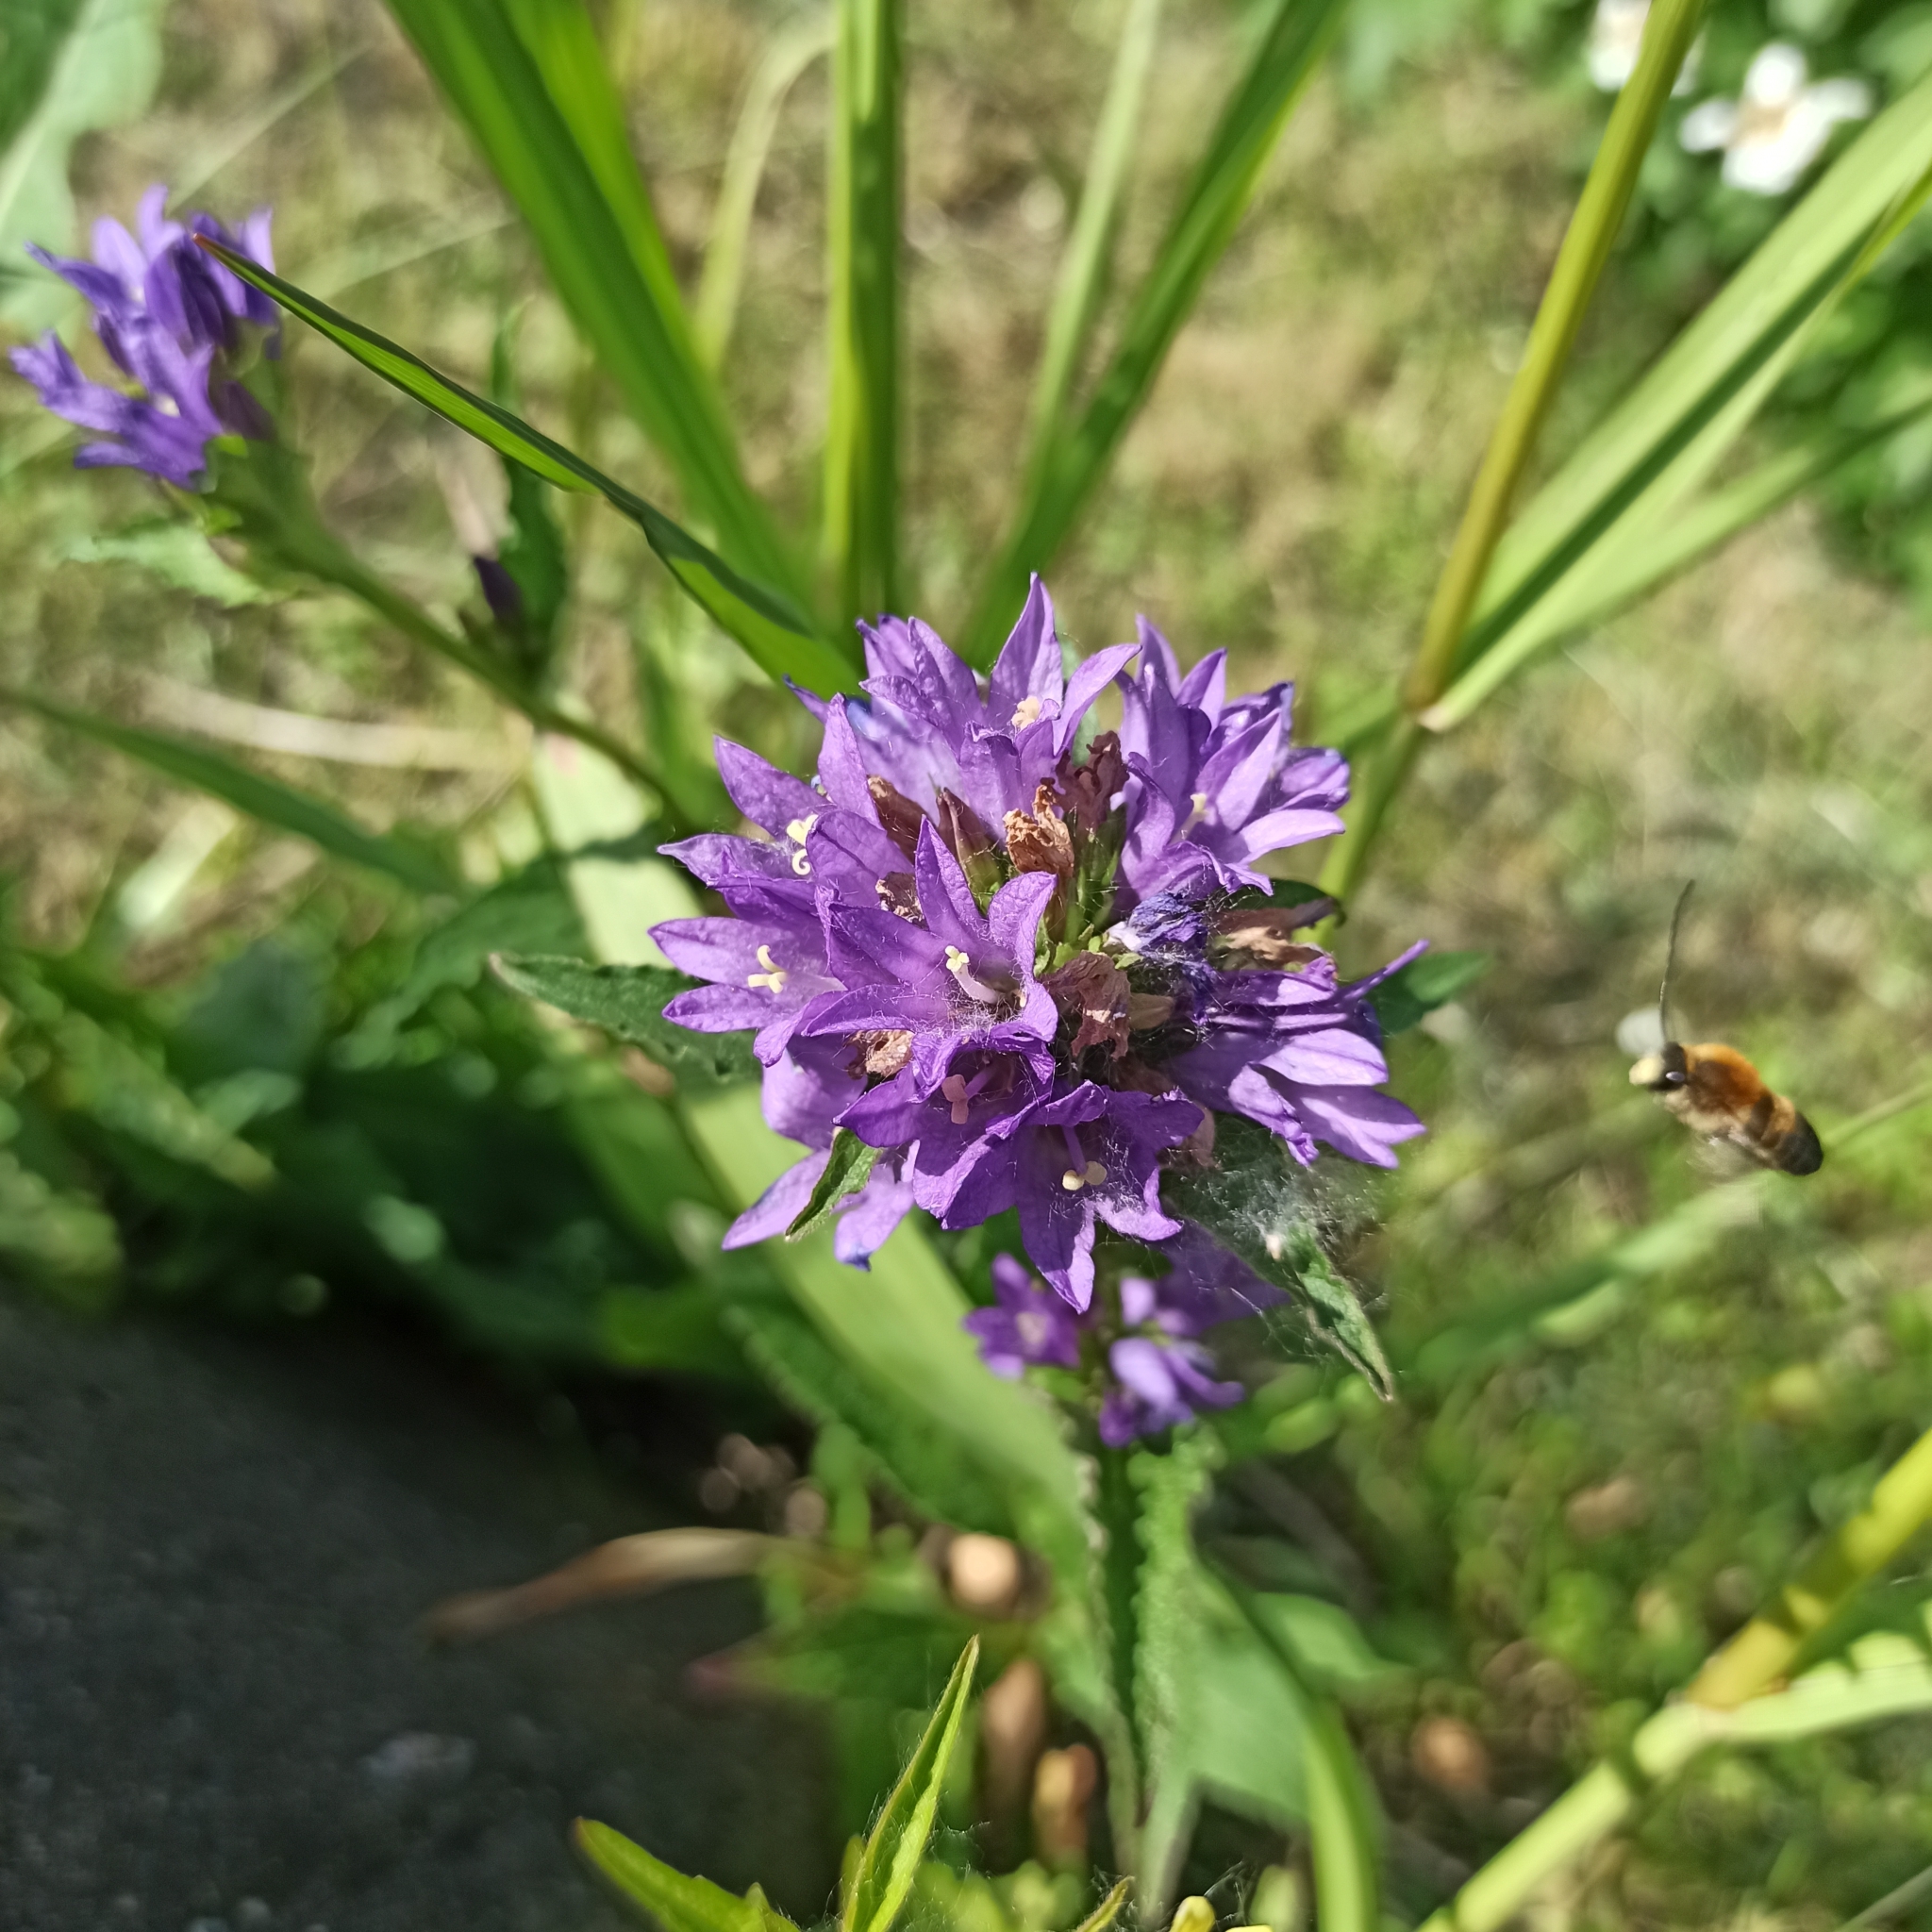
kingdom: Plantae
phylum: Tracheophyta
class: Magnoliopsida
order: Asterales
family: Campanulaceae
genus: Campanula
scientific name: Campanula glomerata
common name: Clustered bellflower
